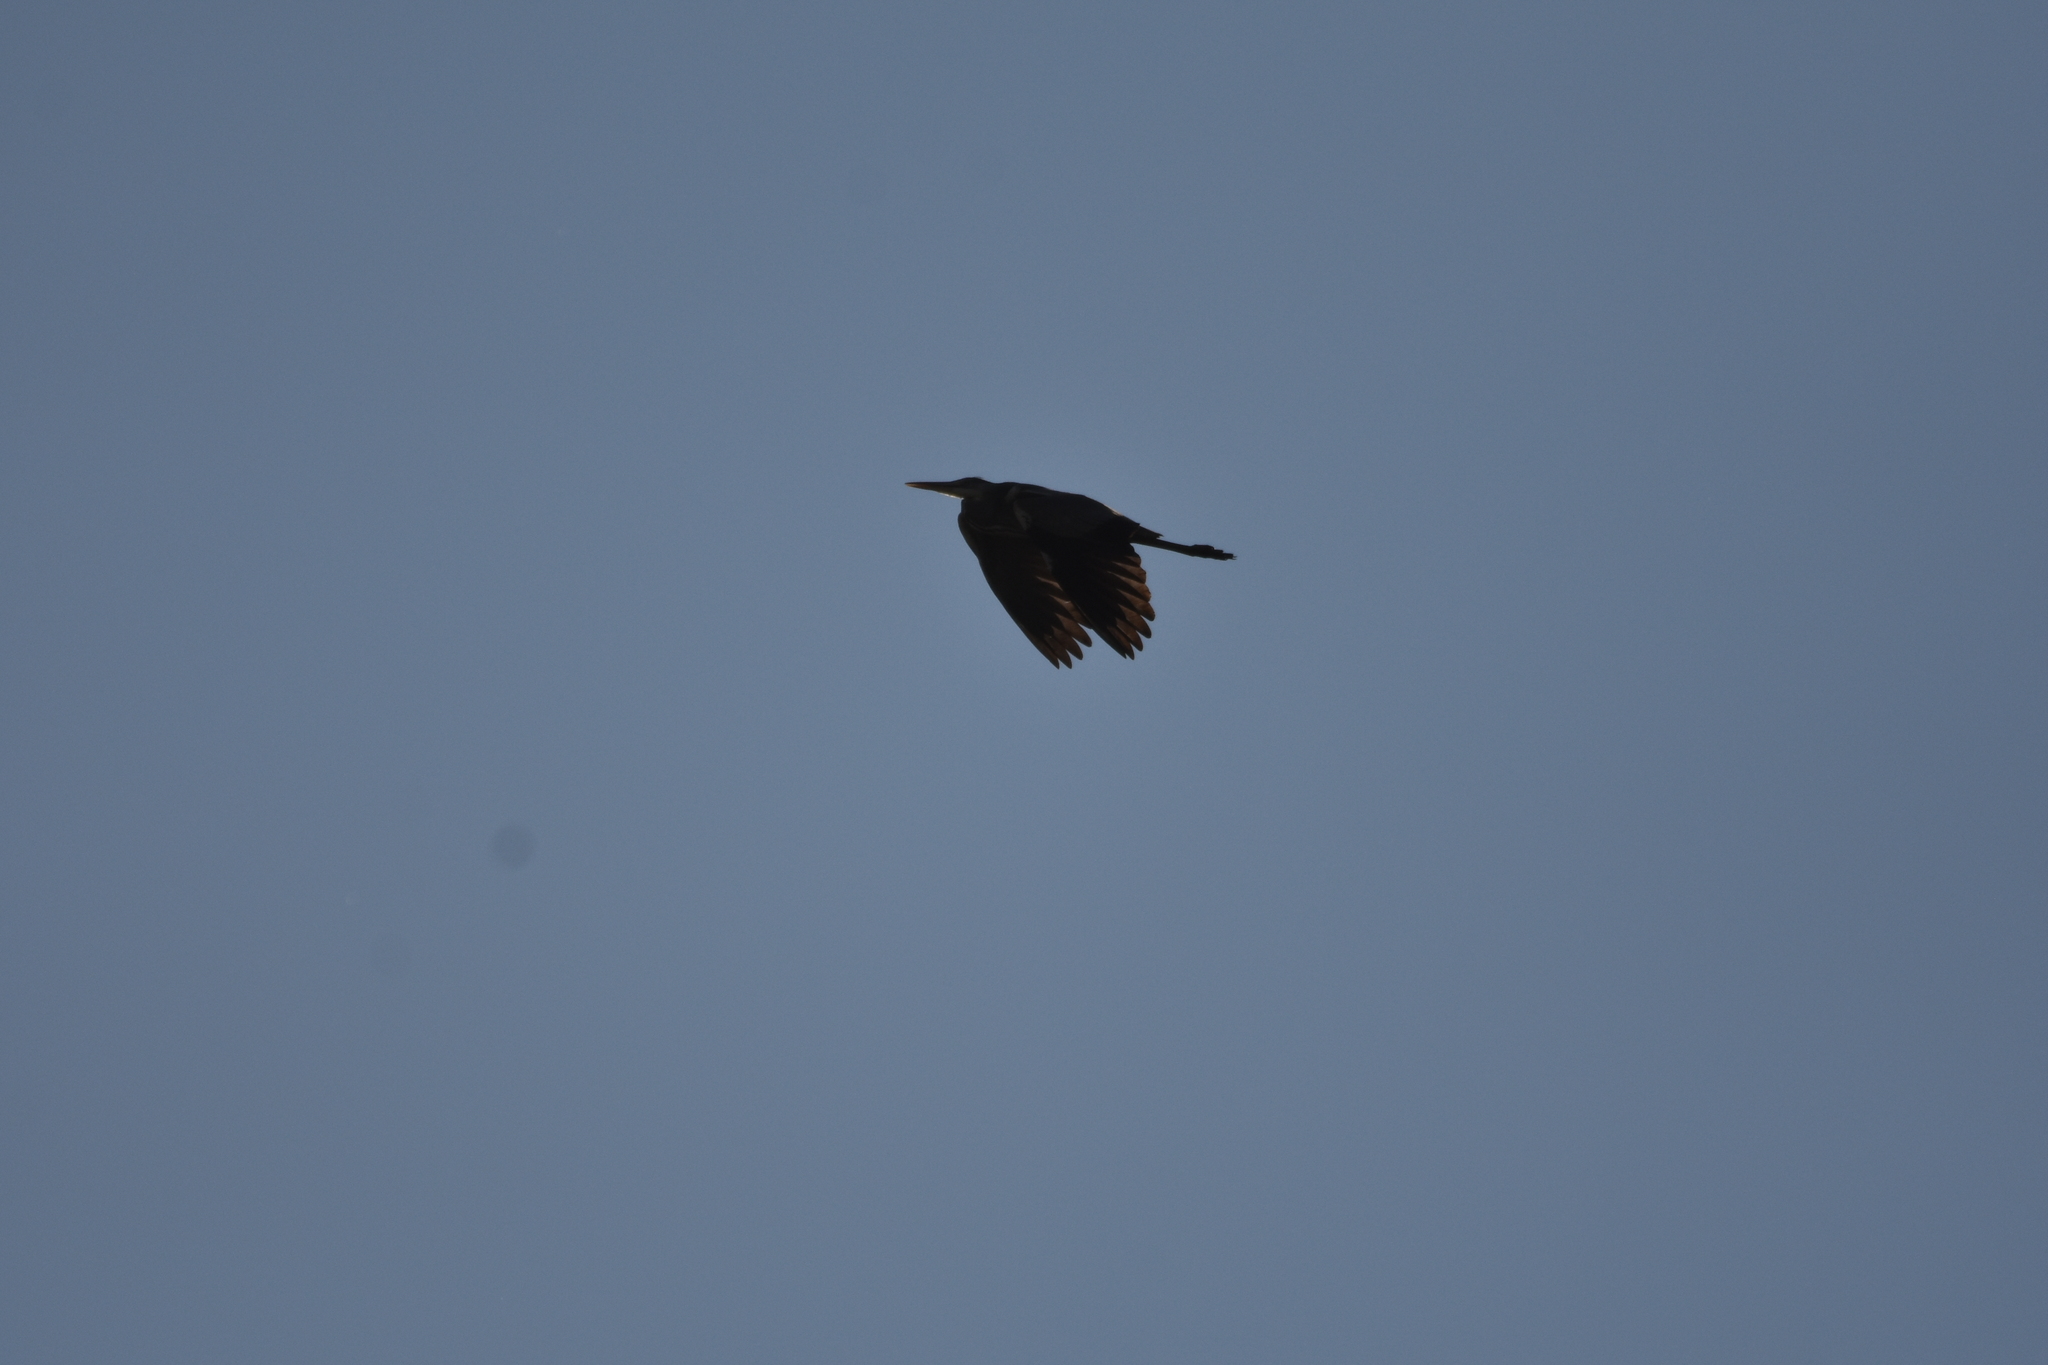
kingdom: Animalia
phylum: Chordata
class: Aves
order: Pelecaniformes
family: Ardeidae
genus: Ardea
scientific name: Ardea cinerea
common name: Grey heron
